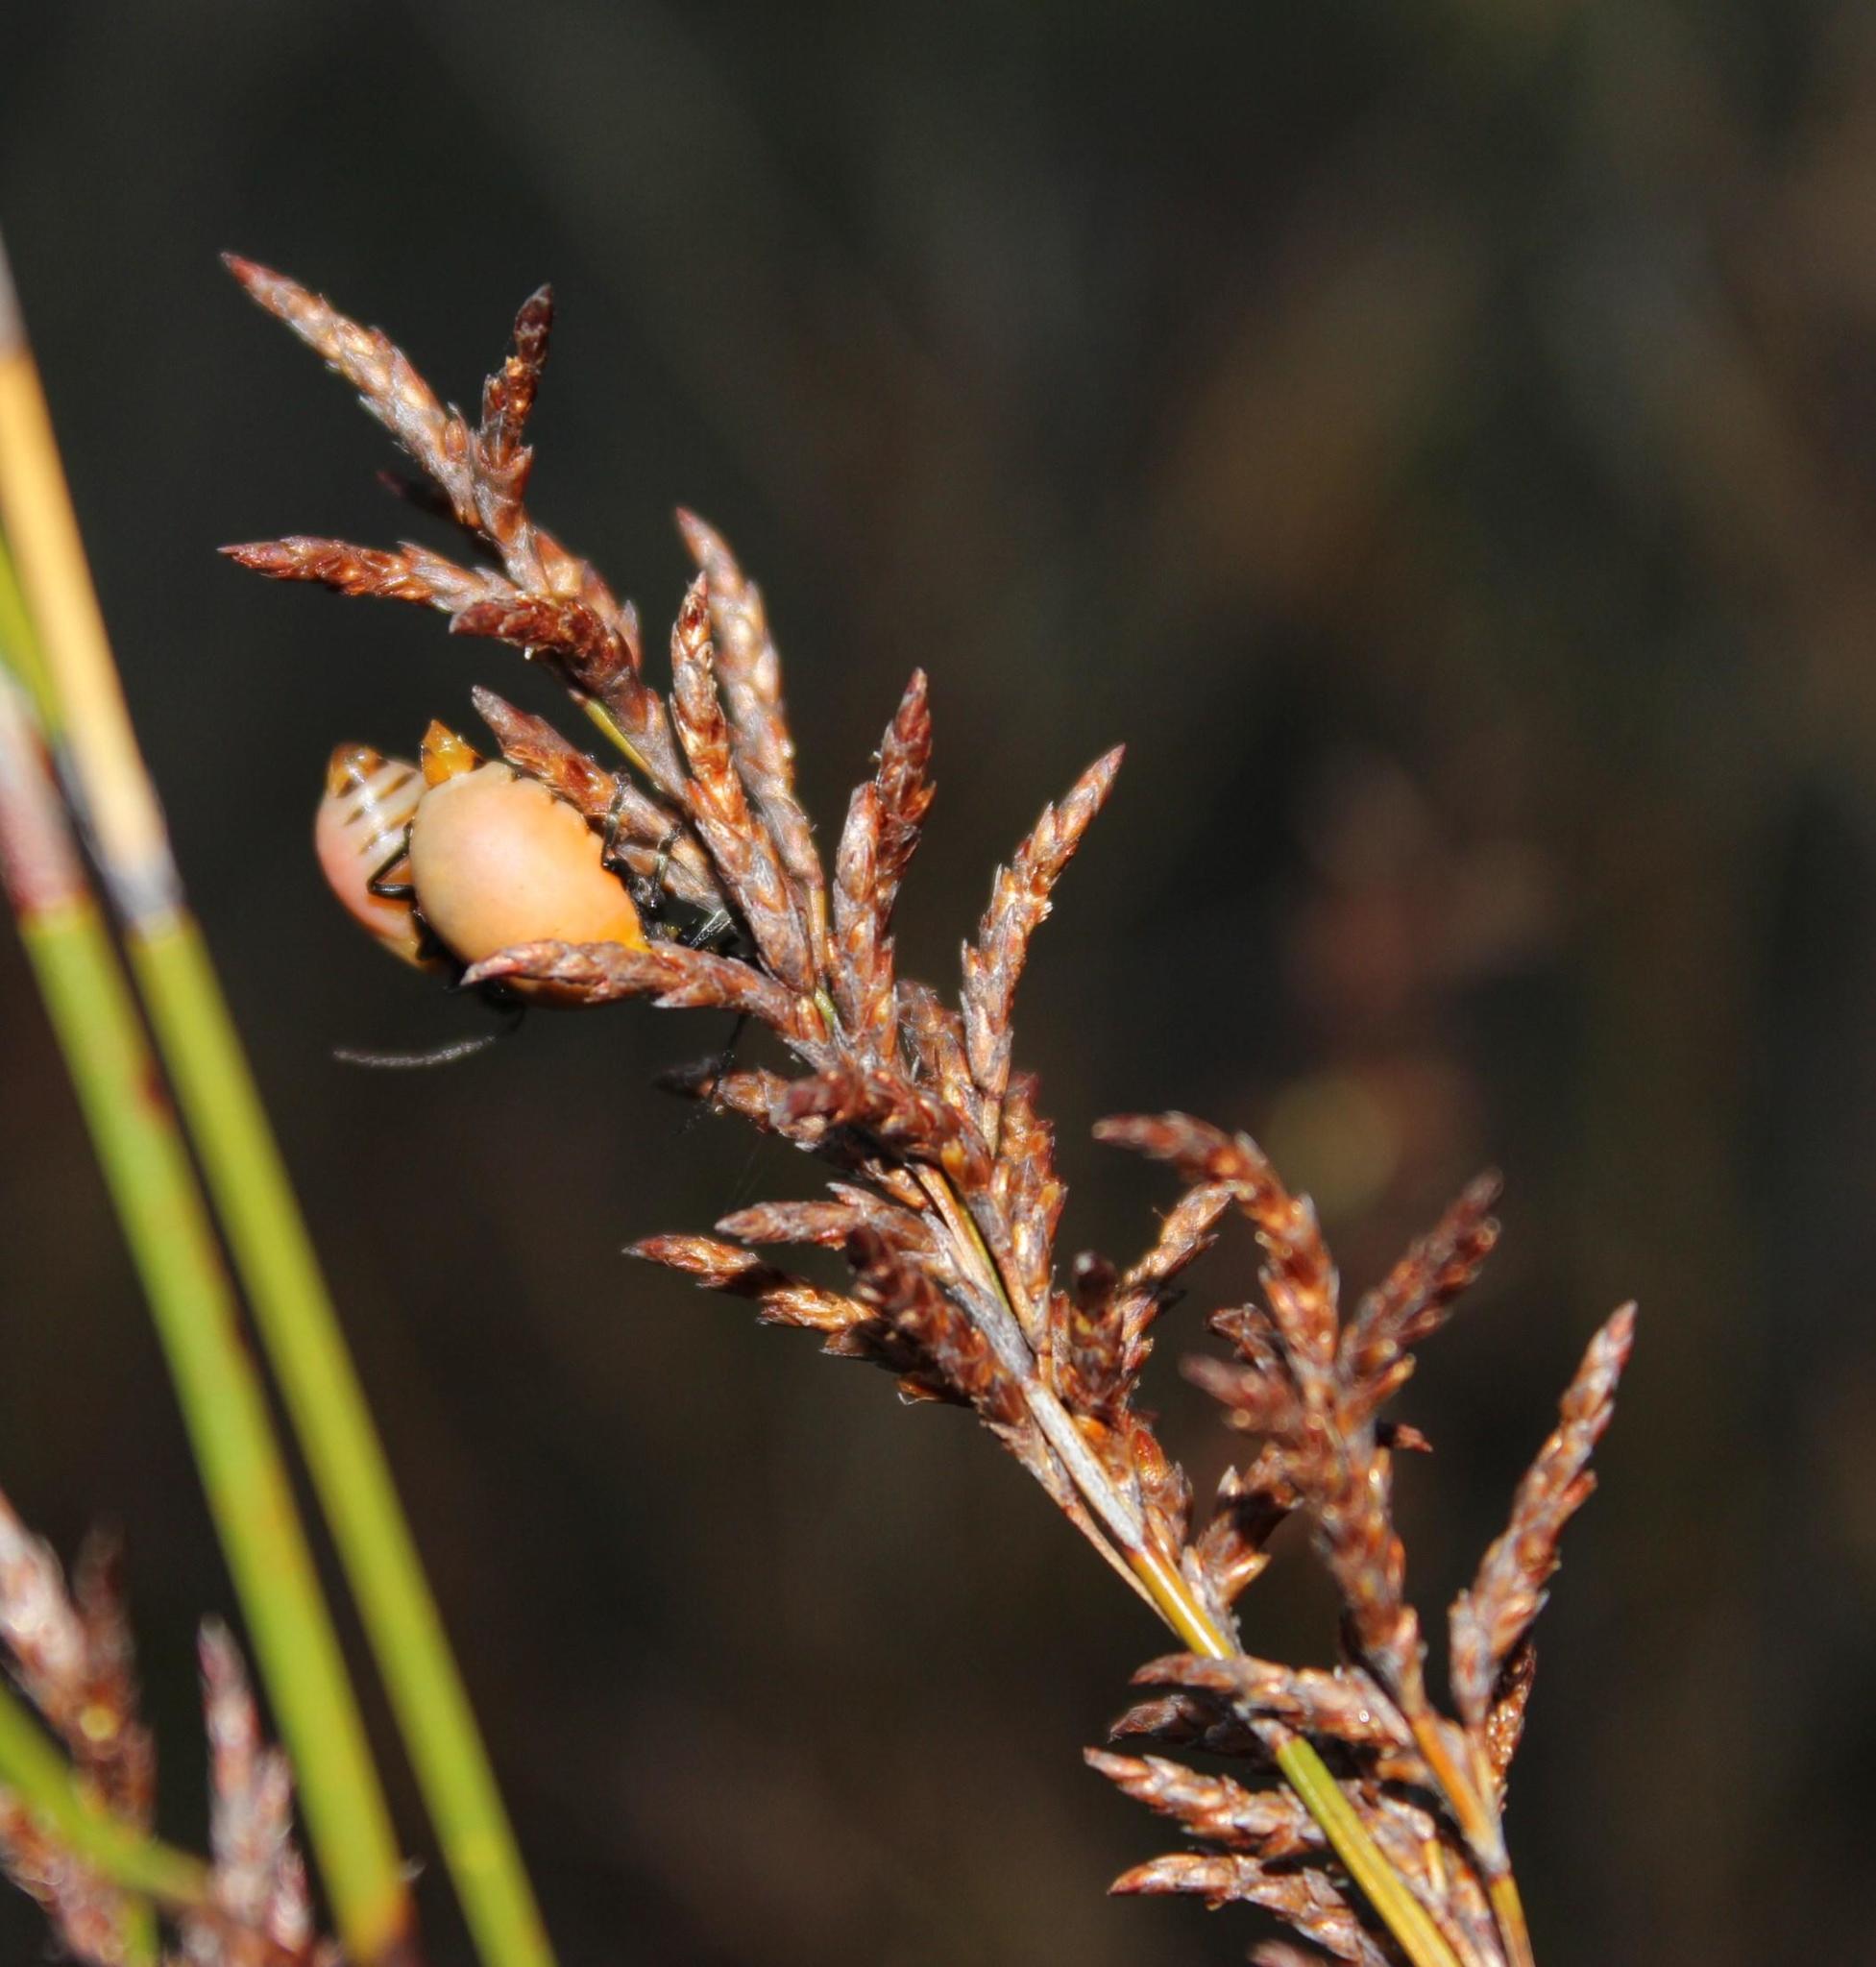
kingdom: Plantae
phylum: Tracheophyta
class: Liliopsida
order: Poales
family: Restionaceae
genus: Restio
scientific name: Restio sieberi
